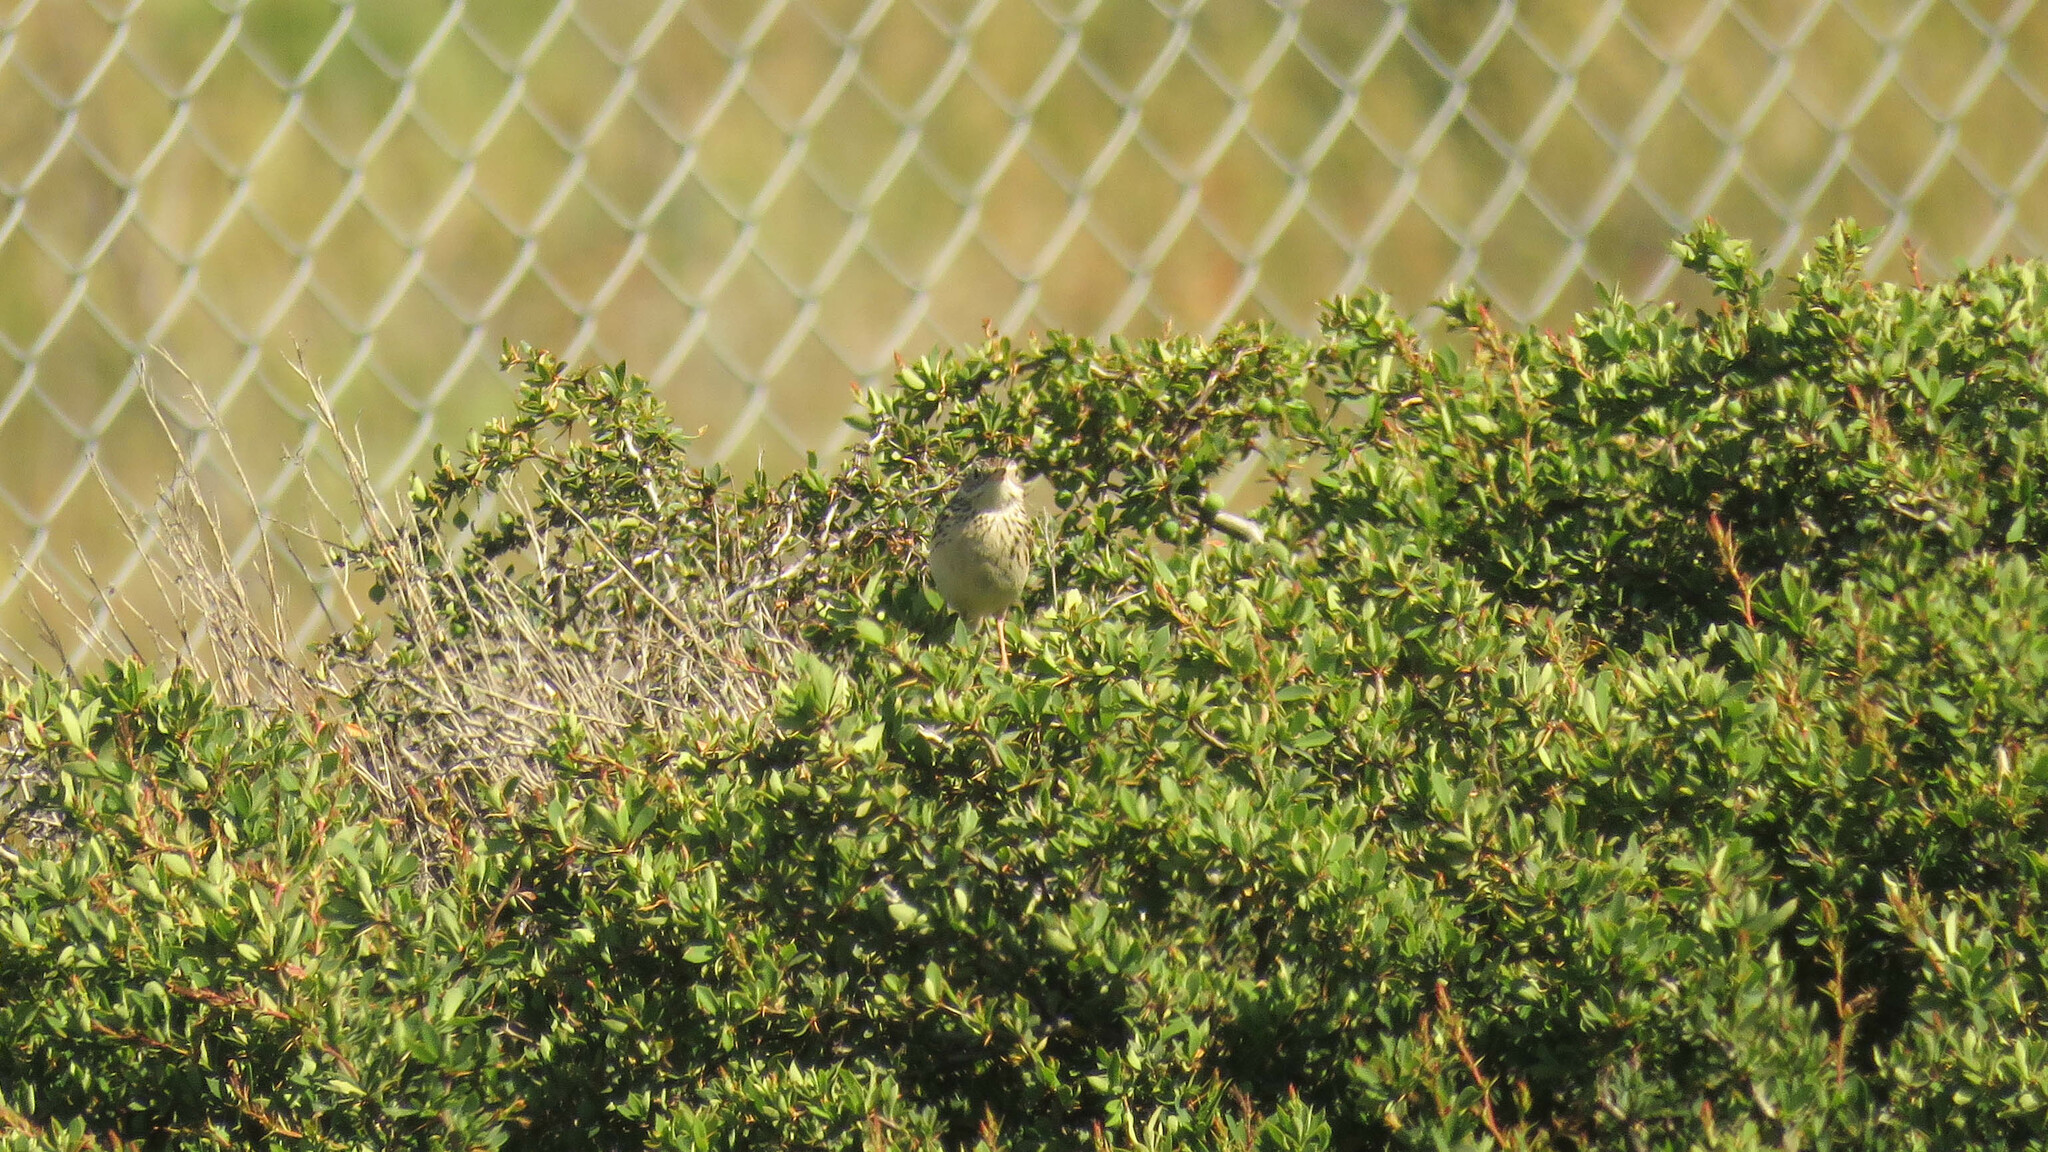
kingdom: Animalia
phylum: Chordata
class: Aves
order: Passeriformes
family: Motacillidae
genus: Anthus
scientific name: Anthus hellmayri
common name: Hellmayr's pipit
